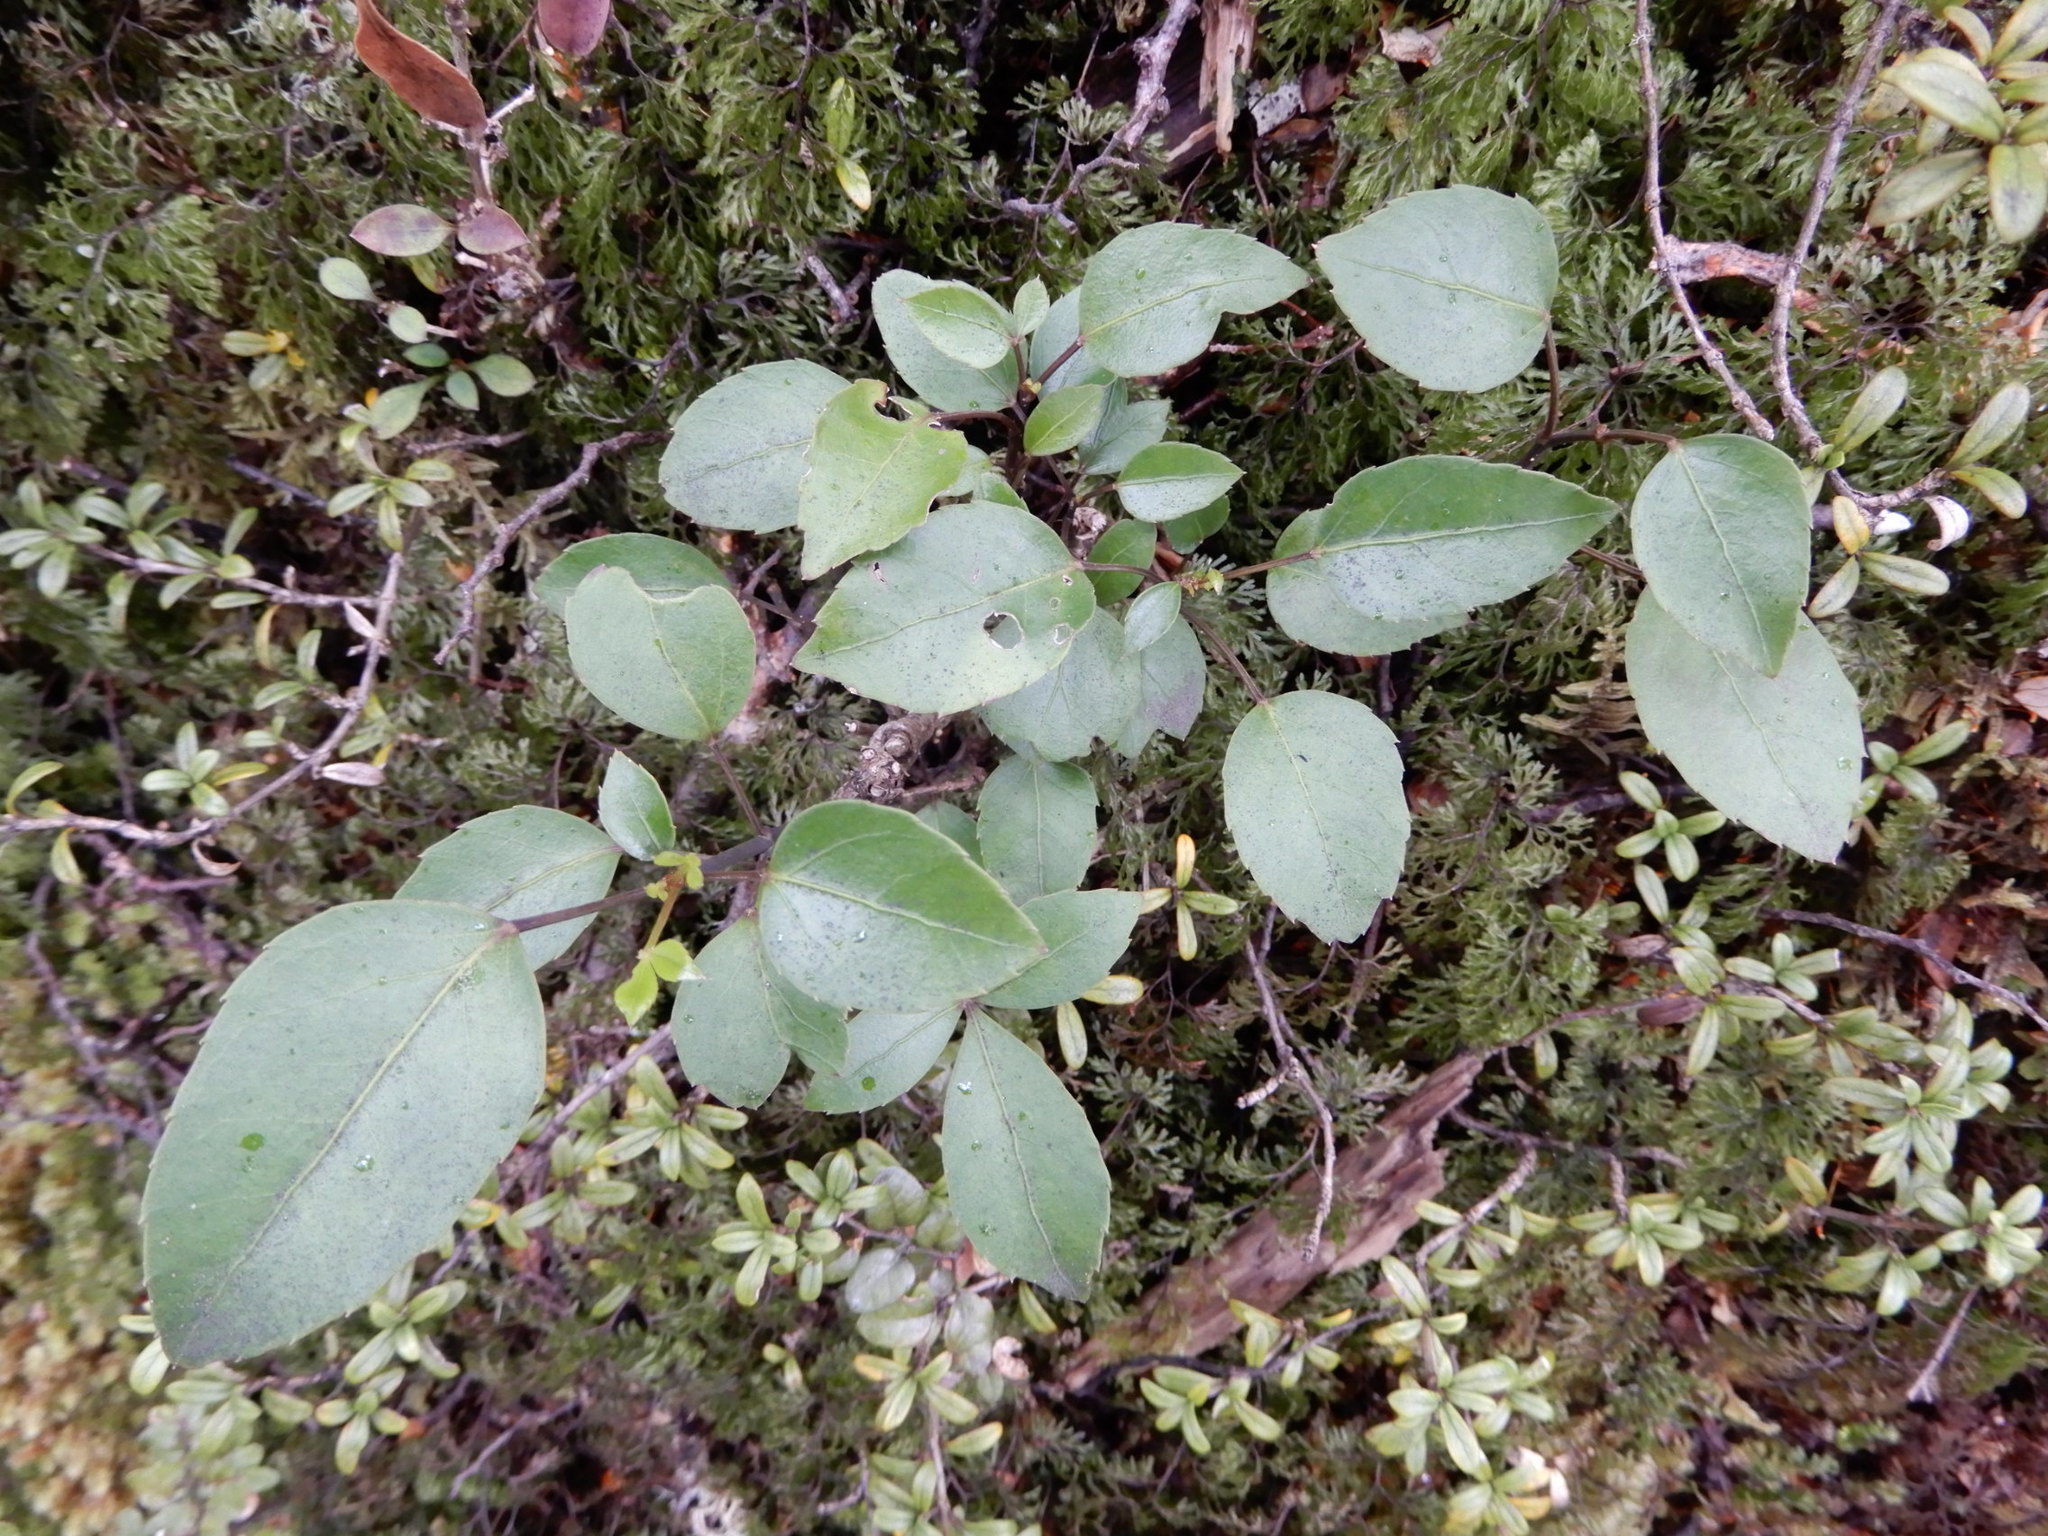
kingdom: Plantae
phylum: Tracheophyta
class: Magnoliopsida
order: Apiales
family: Araliaceae
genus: Neopanax
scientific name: Neopanax colensoi
